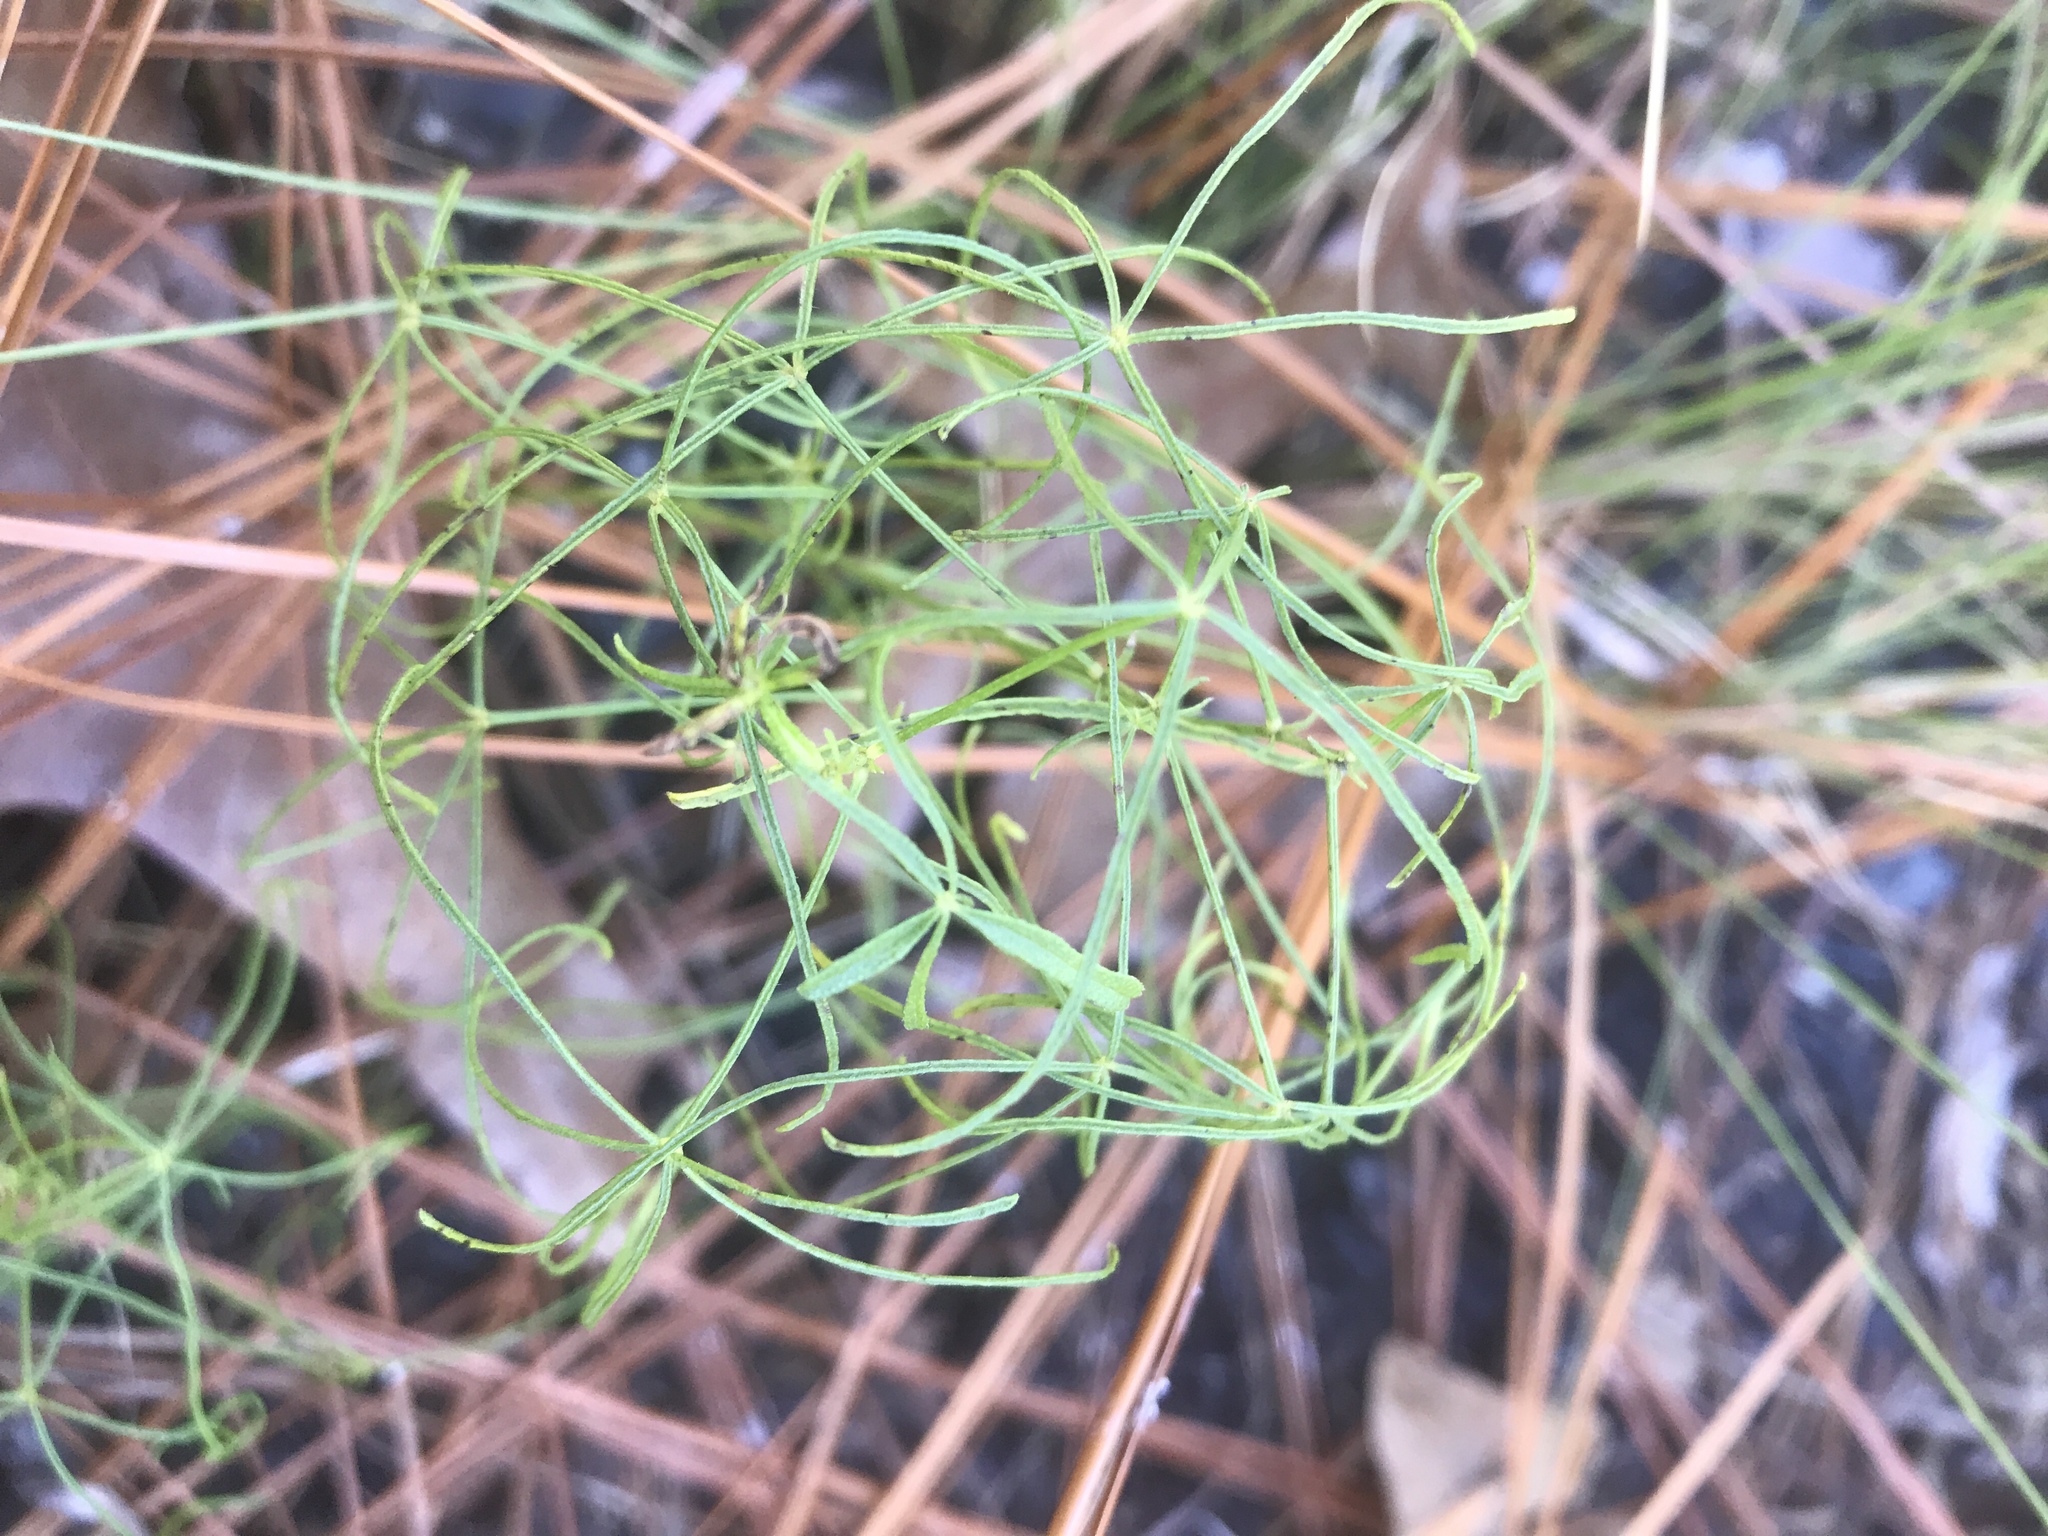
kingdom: Plantae
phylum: Tracheophyta
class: Magnoliopsida
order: Fabales
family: Fabaceae
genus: Orbexilum
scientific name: Orbexilum lupinellus
